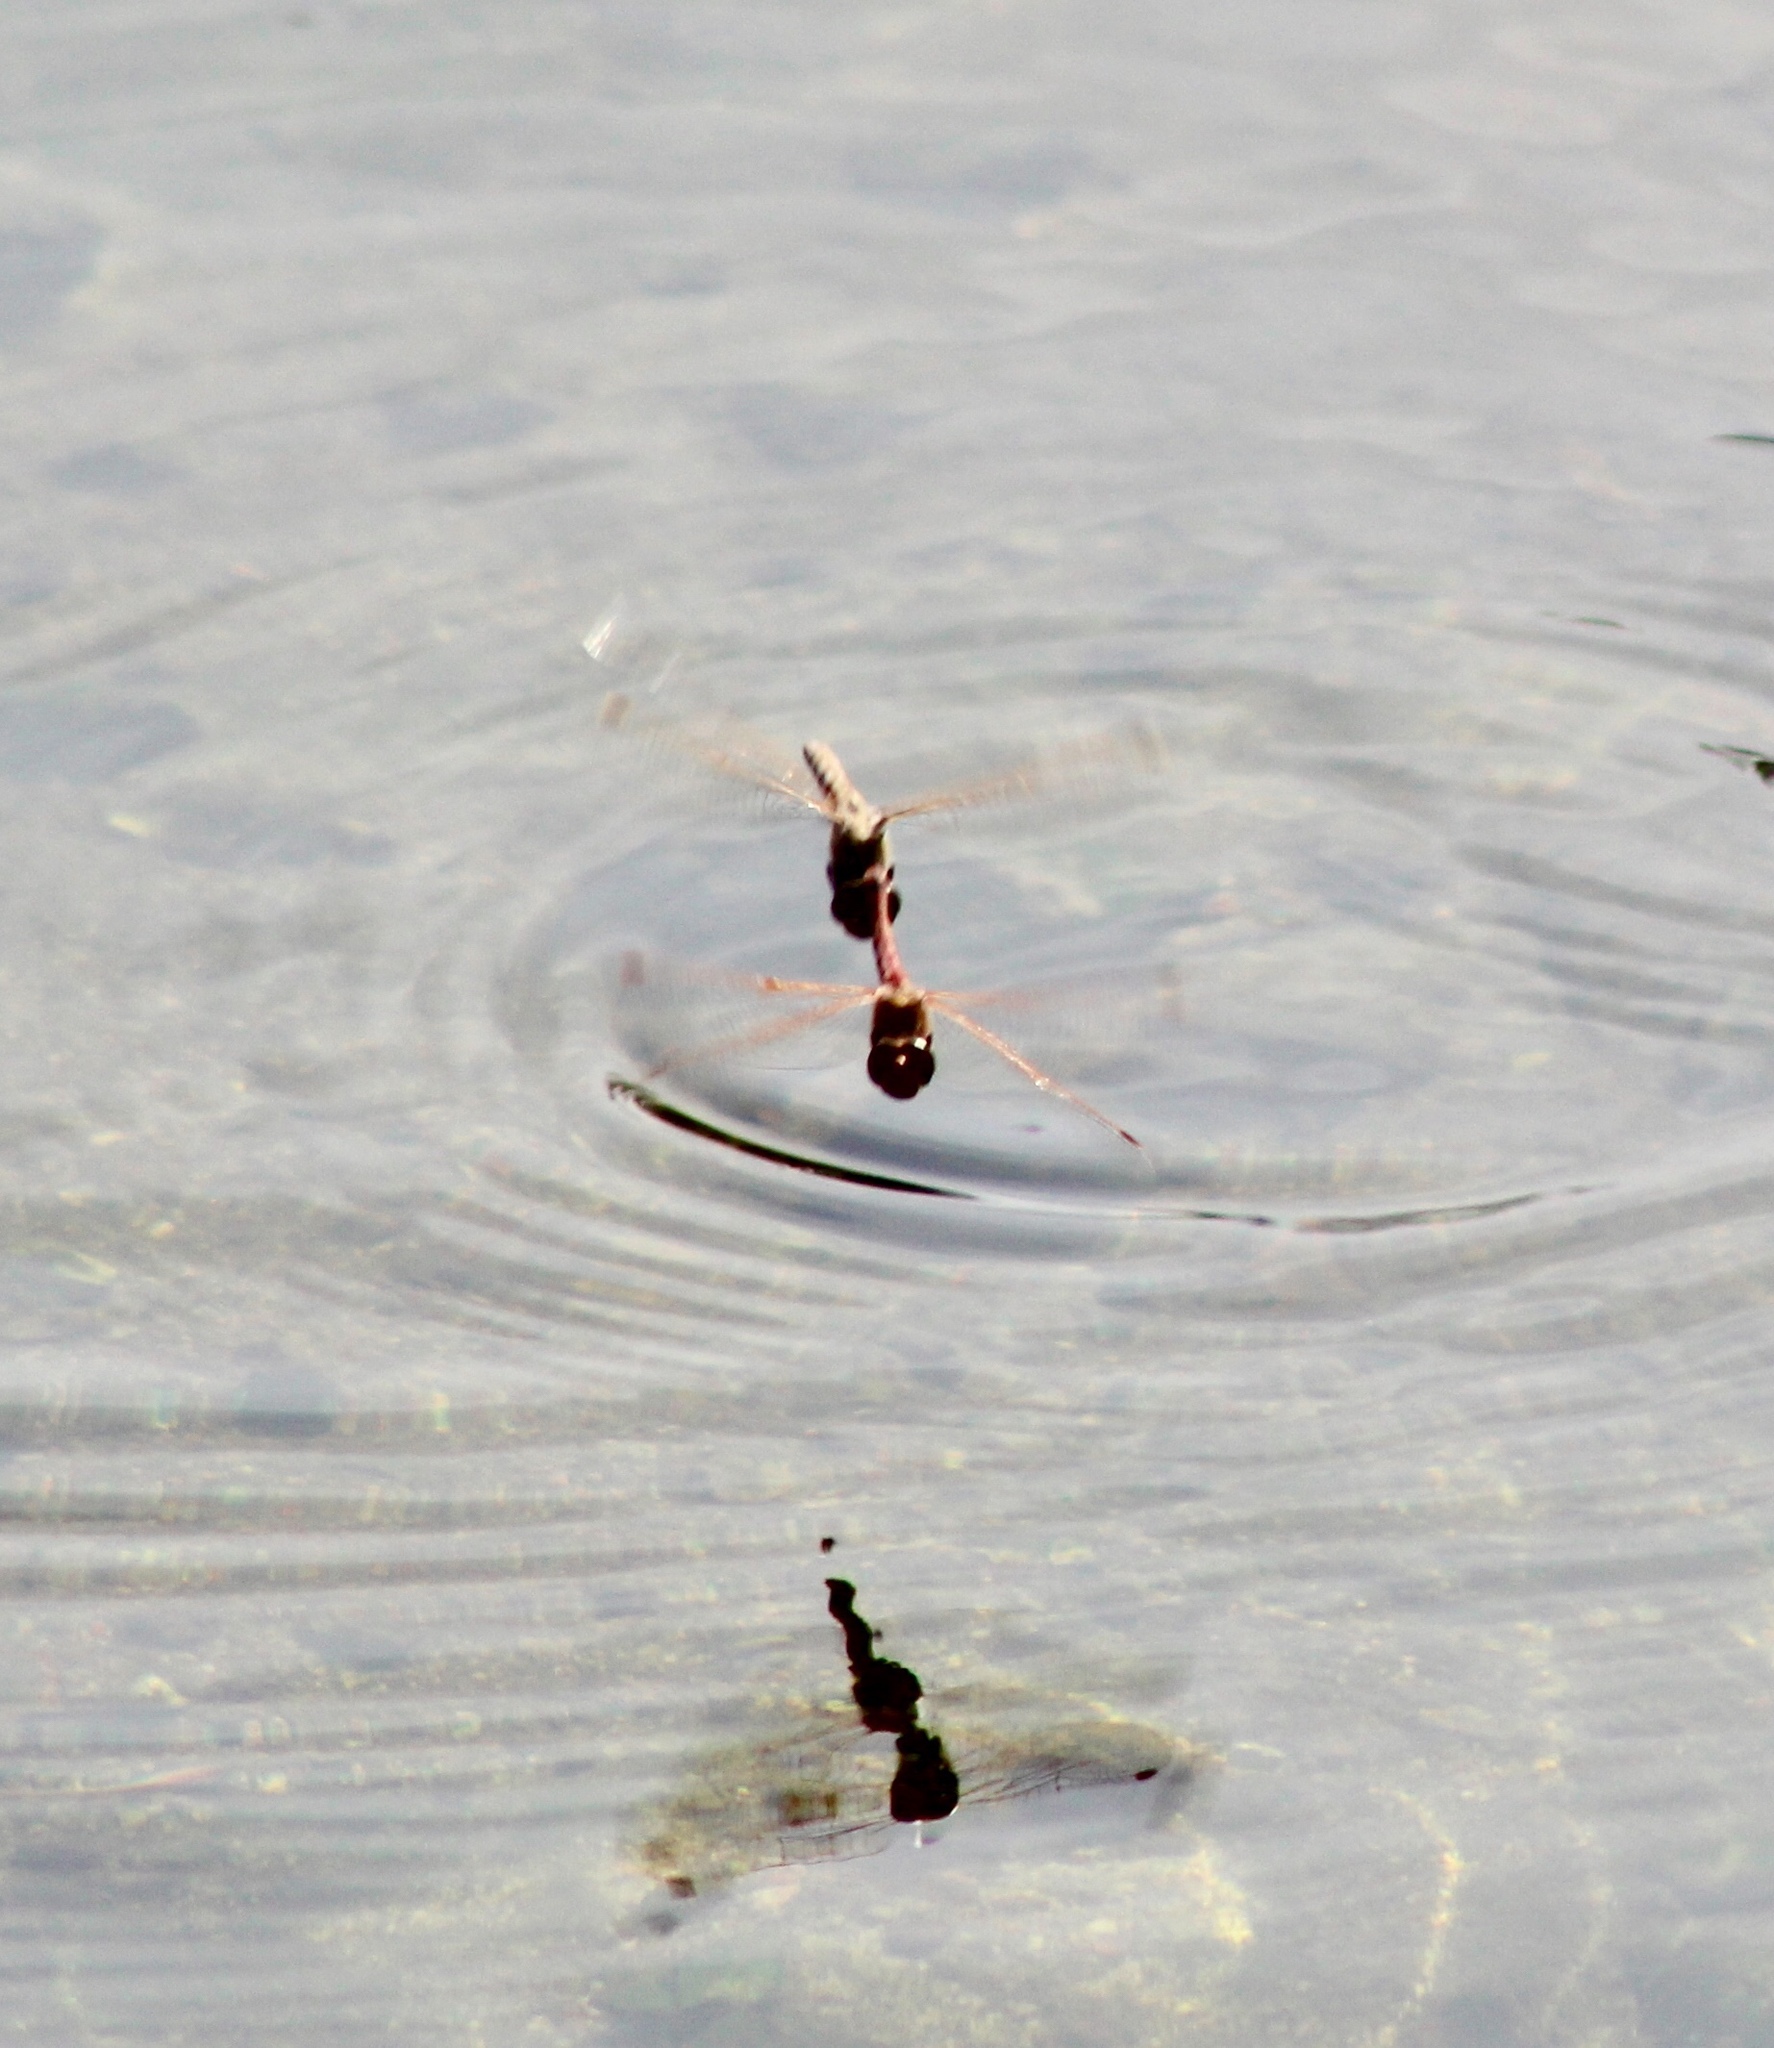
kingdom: Animalia
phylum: Arthropoda
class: Insecta
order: Odonata
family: Libellulidae
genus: Sympetrum
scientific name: Sympetrum corruptum
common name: Variegated meadowhawk
